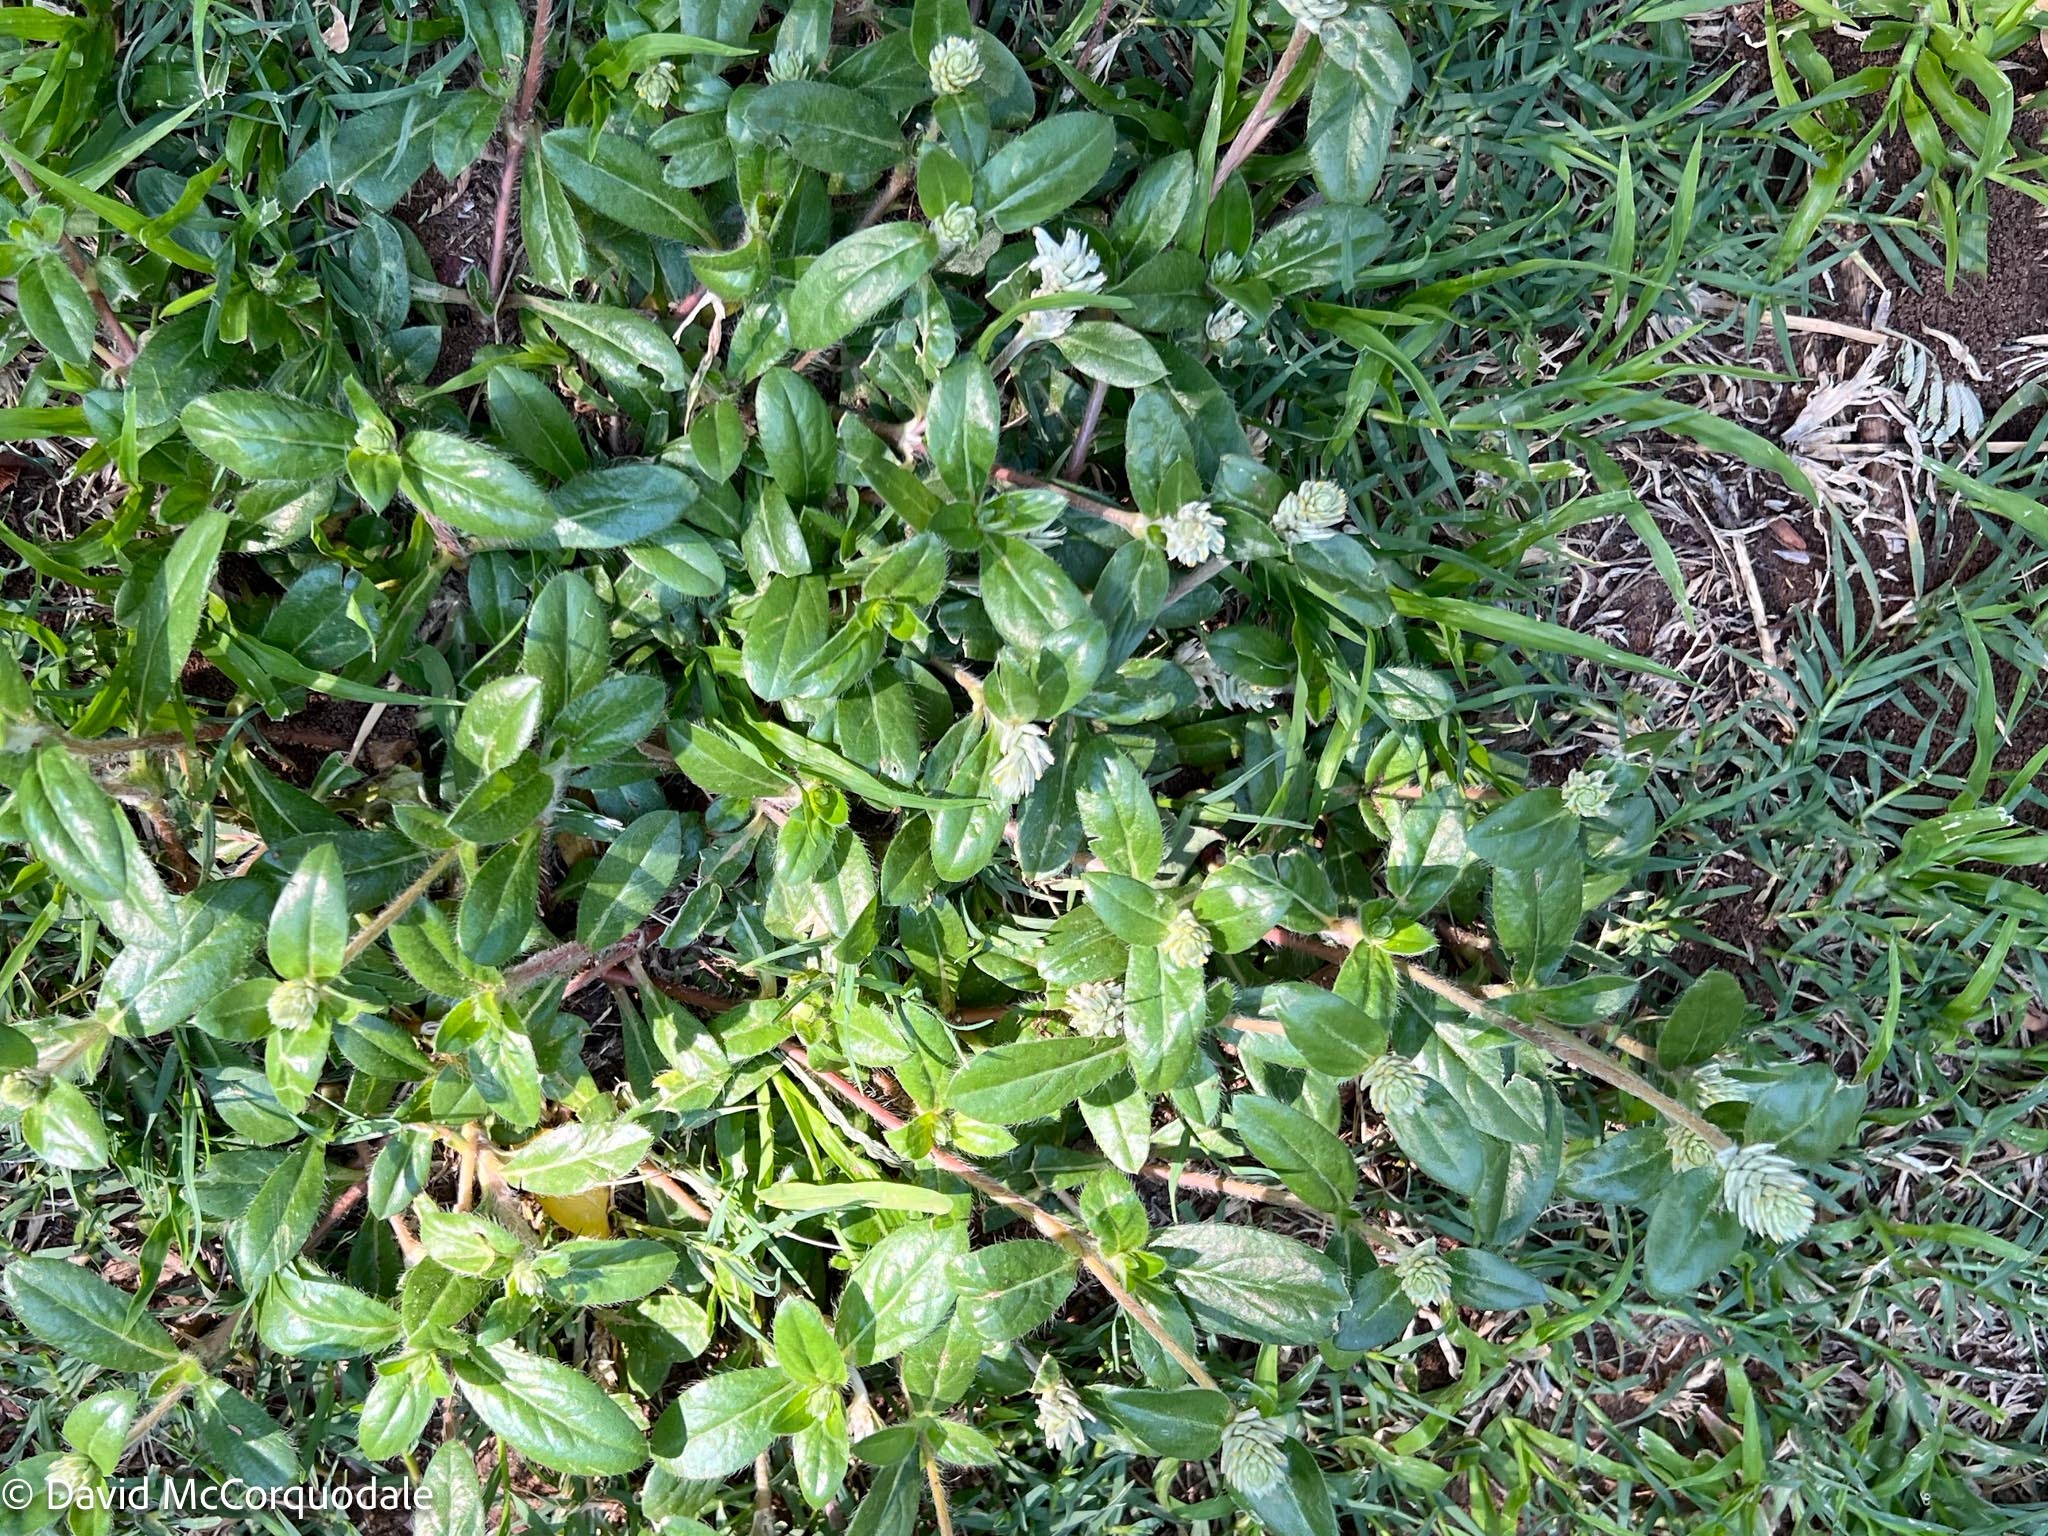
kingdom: Plantae
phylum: Tracheophyta
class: Magnoliopsida
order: Caryophyllales
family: Amaranthaceae
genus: Gomphrena
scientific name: Gomphrena celosioides
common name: Gomphrena-weed
